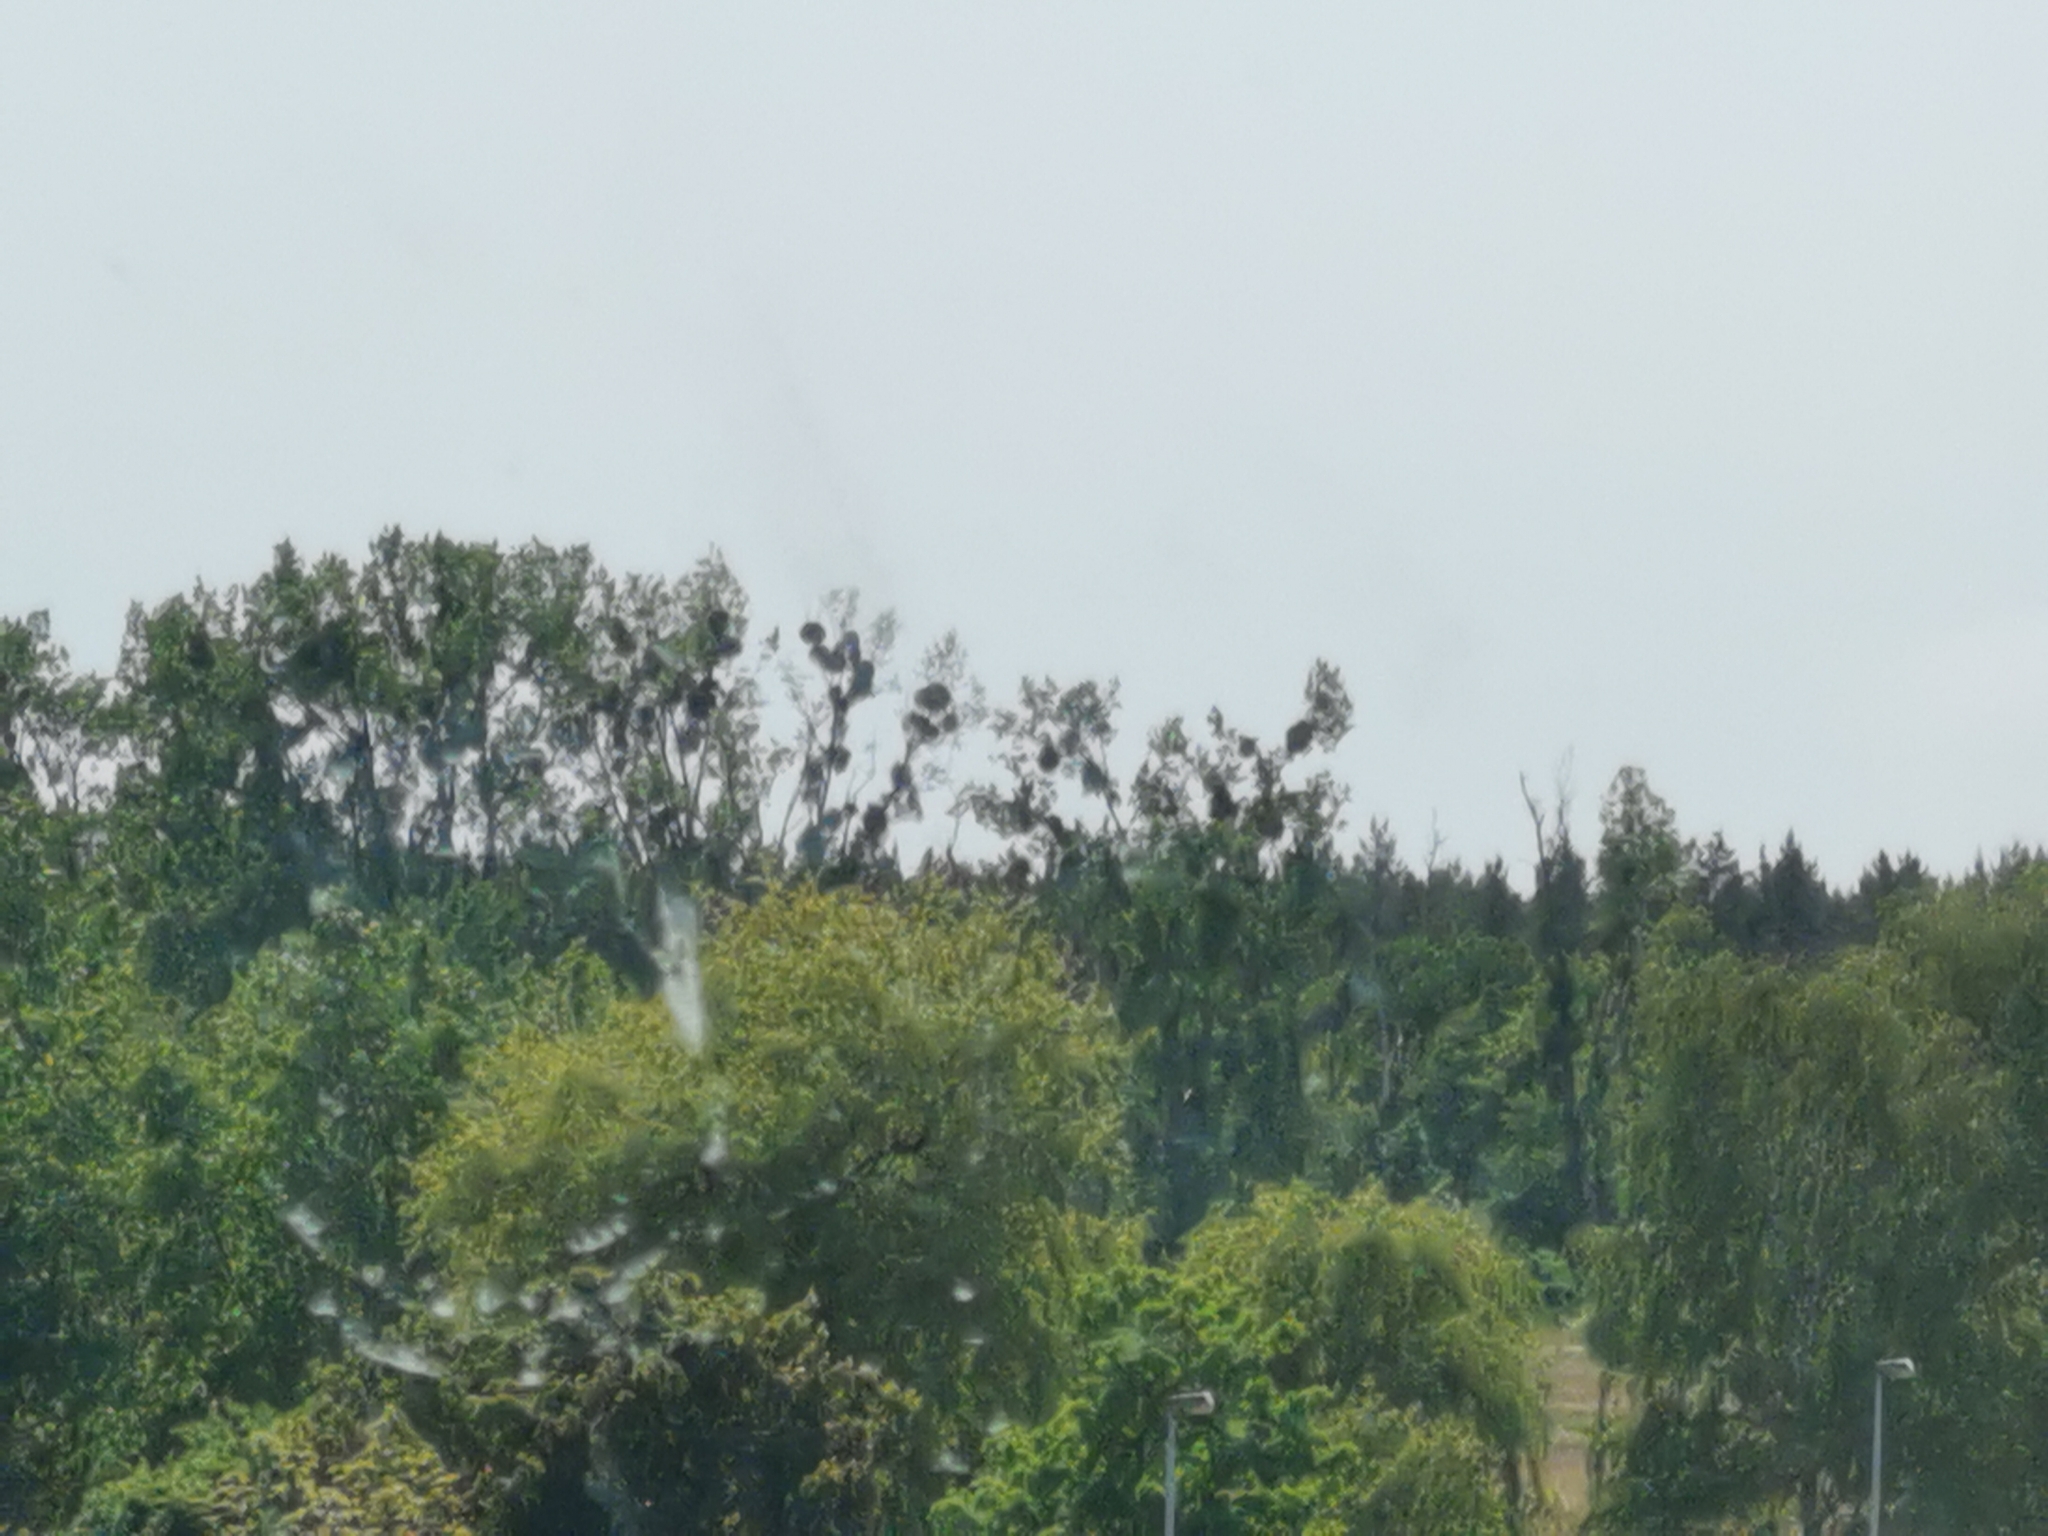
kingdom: Plantae
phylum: Tracheophyta
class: Magnoliopsida
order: Santalales
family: Viscaceae
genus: Viscum
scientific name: Viscum album
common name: Mistletoe
